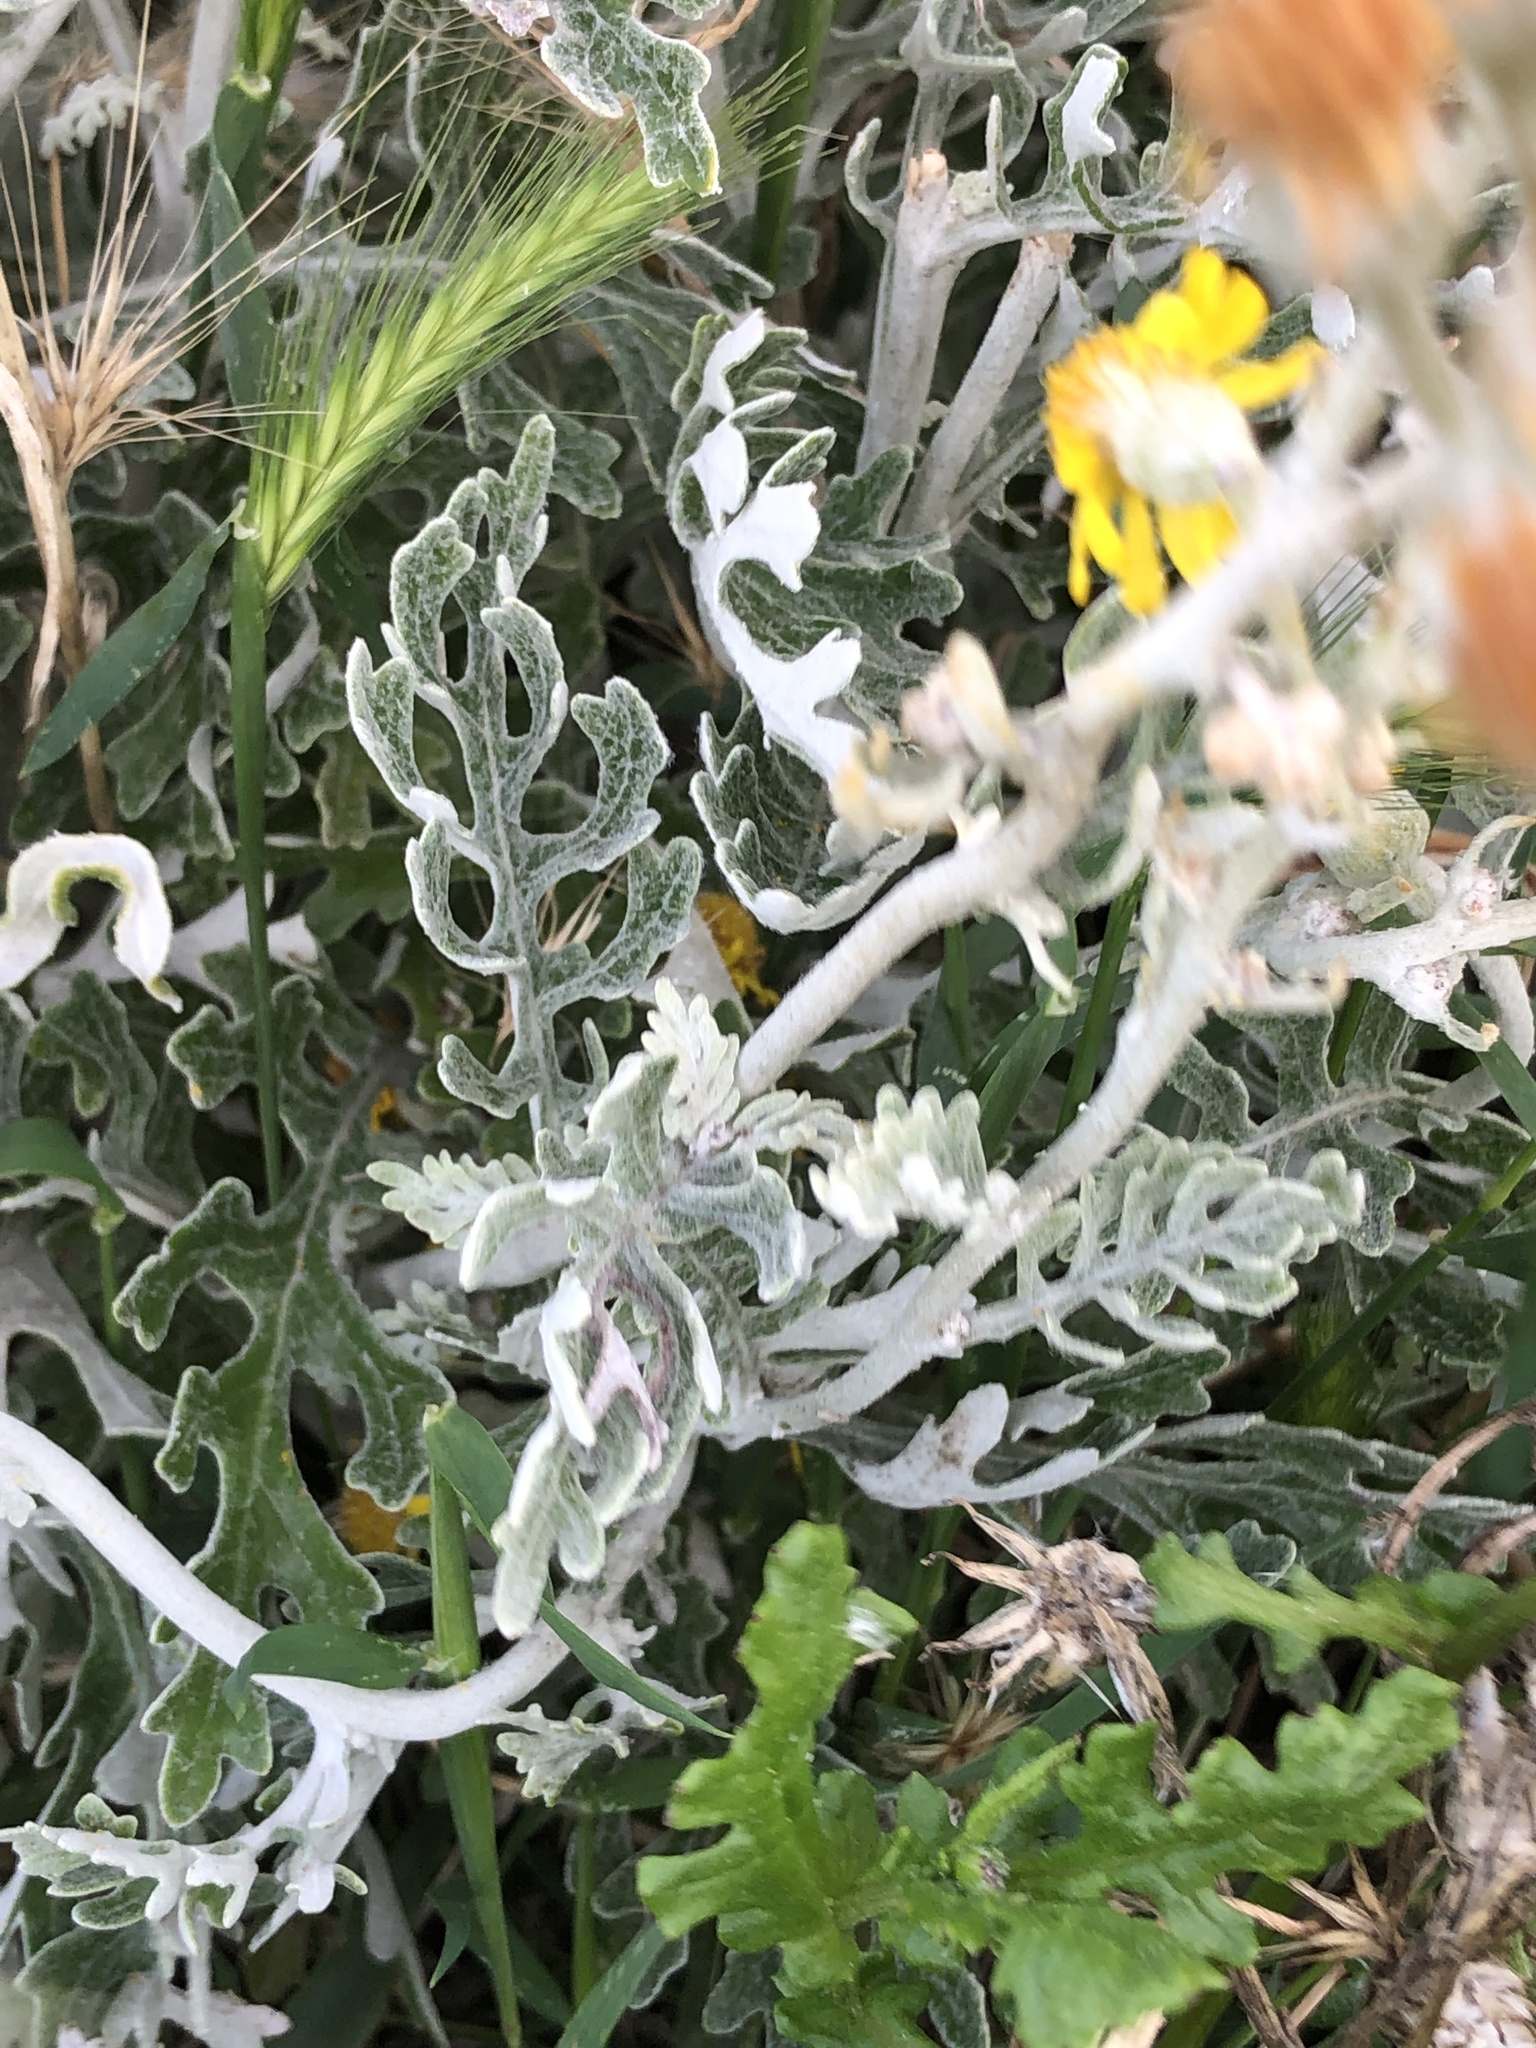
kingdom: Plantae
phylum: Tracheophyta
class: Magnoliopsida
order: Asterales
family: Asteraceae
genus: Jacobaea
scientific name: Jacobaea maritima
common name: Silver ragwort
